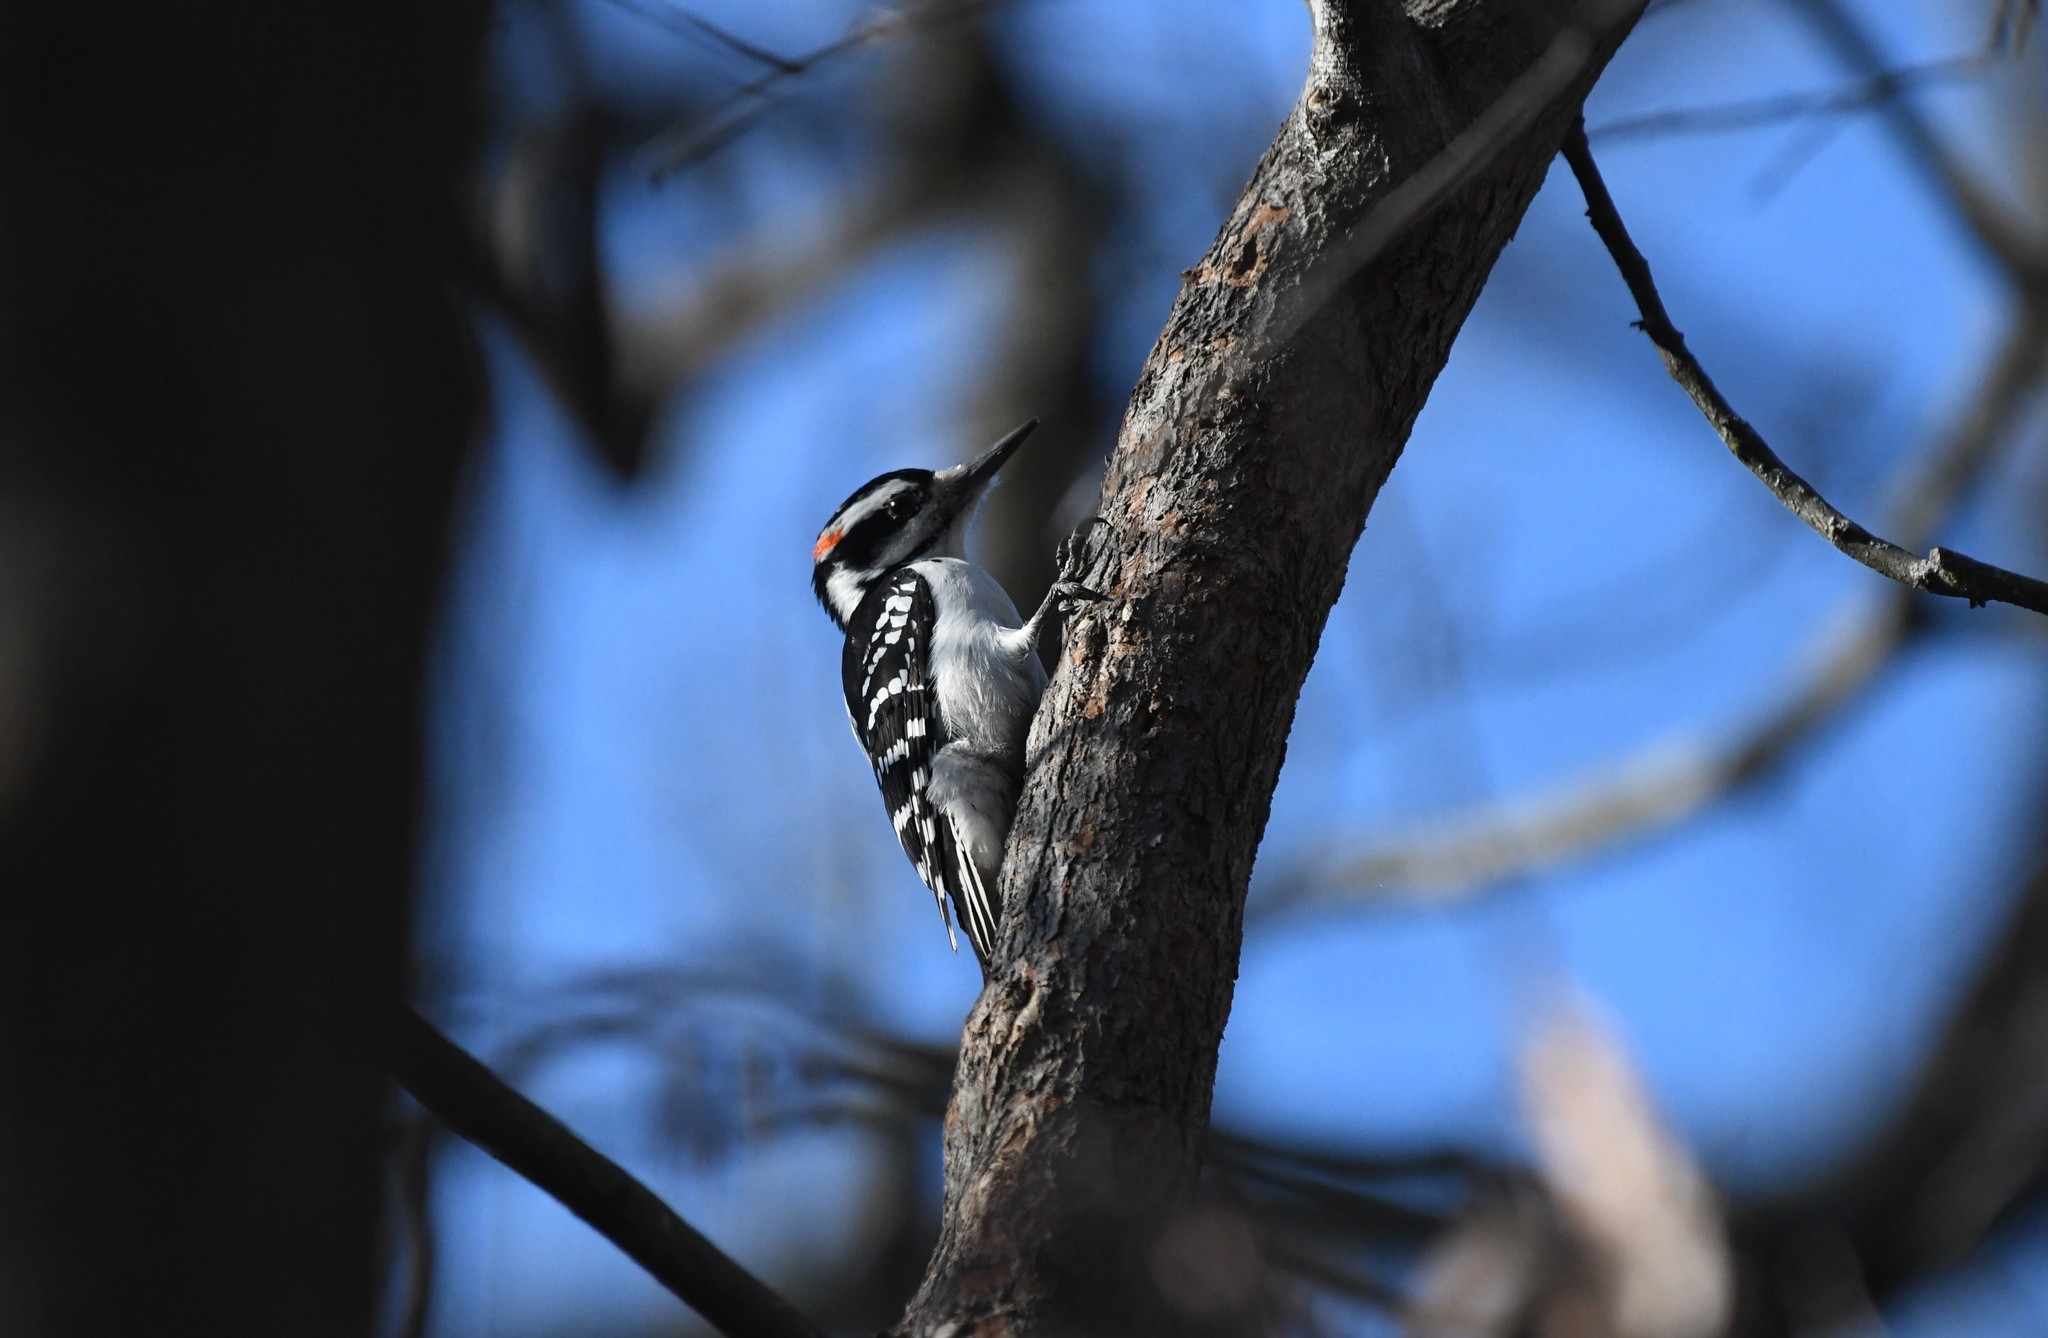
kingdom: Animalia
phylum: Chordata
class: Aves
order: Piciformes
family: Picidae
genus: Leuconotopicus
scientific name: Leuconotopicus villosus
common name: Hairy woodpecker
